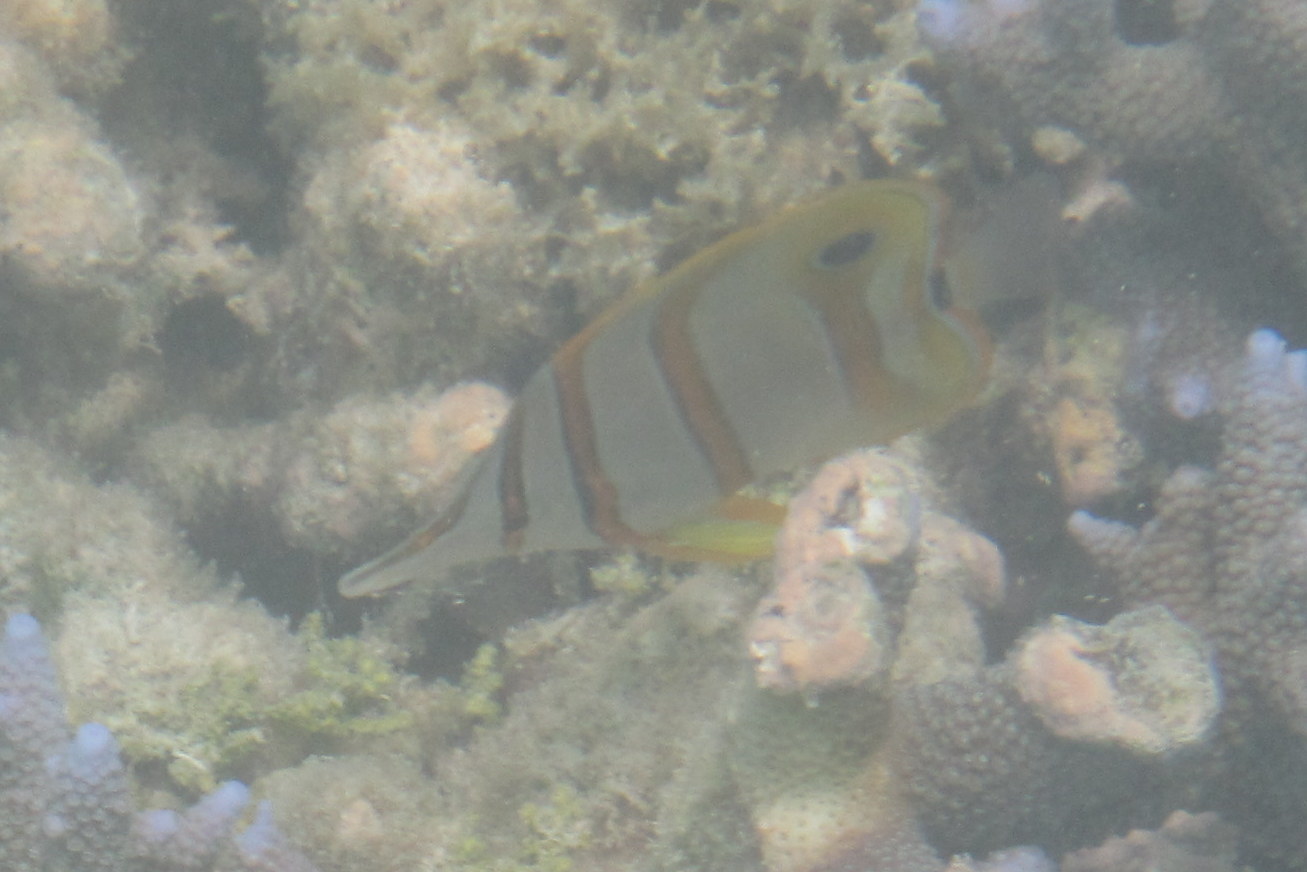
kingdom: Animalia
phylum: Chordata
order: Perciformes
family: Chaetodontidae
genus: Chelmon
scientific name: Chelmon rostratus
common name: Beaked butterflyfish
